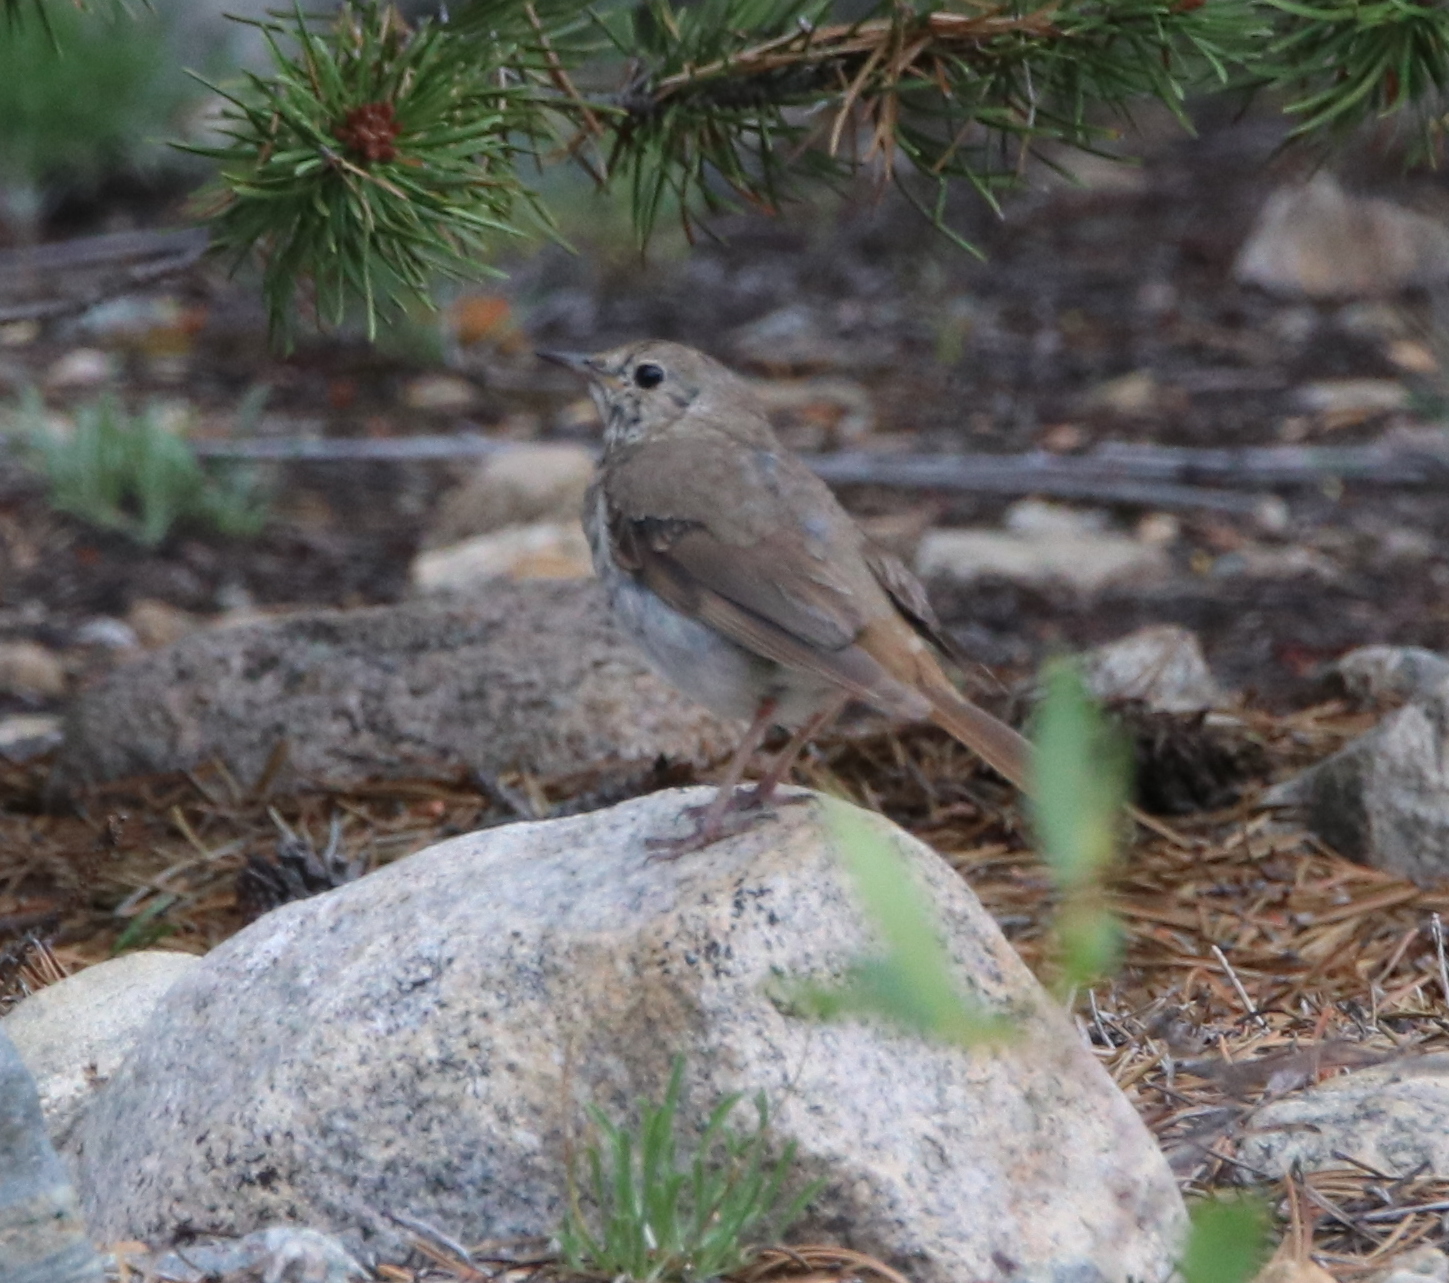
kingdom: Animalia
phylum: Chordata
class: Aves
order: Passeriformes
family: Turdidae
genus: Catharus
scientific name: Catharus guttatus
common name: Hermit thrush
